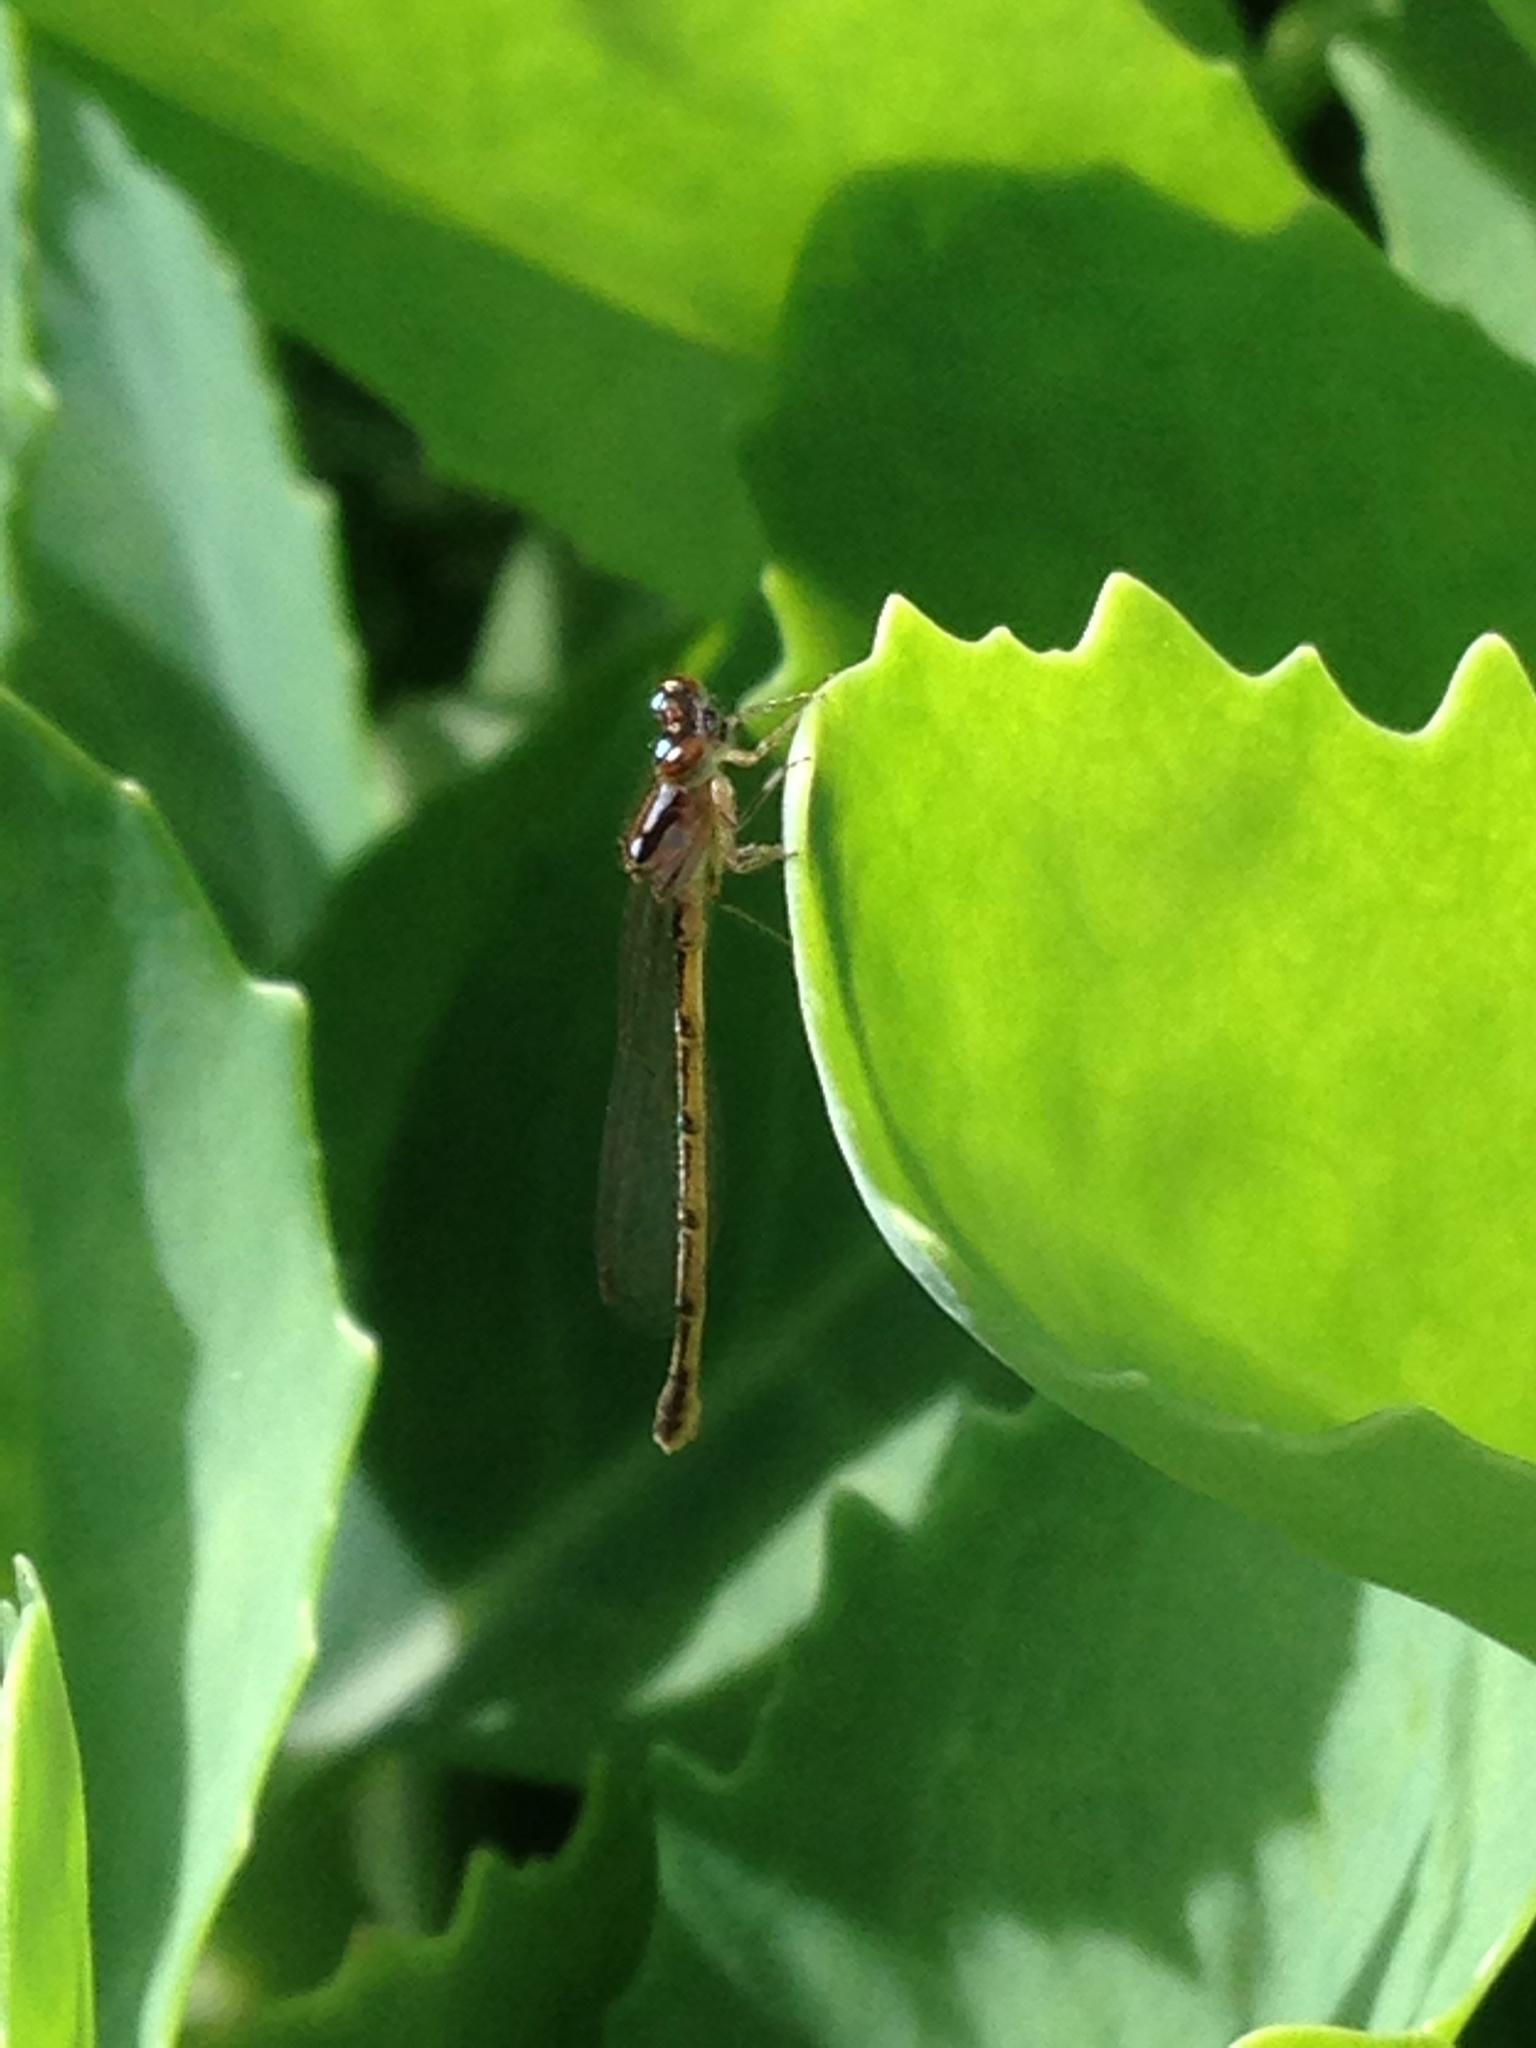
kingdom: Animalia
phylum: Arthropoda
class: Insecta
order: Odonata
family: Coenagrionidae
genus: Ischnura
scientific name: Ischnura posita
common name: Fragile forktail
